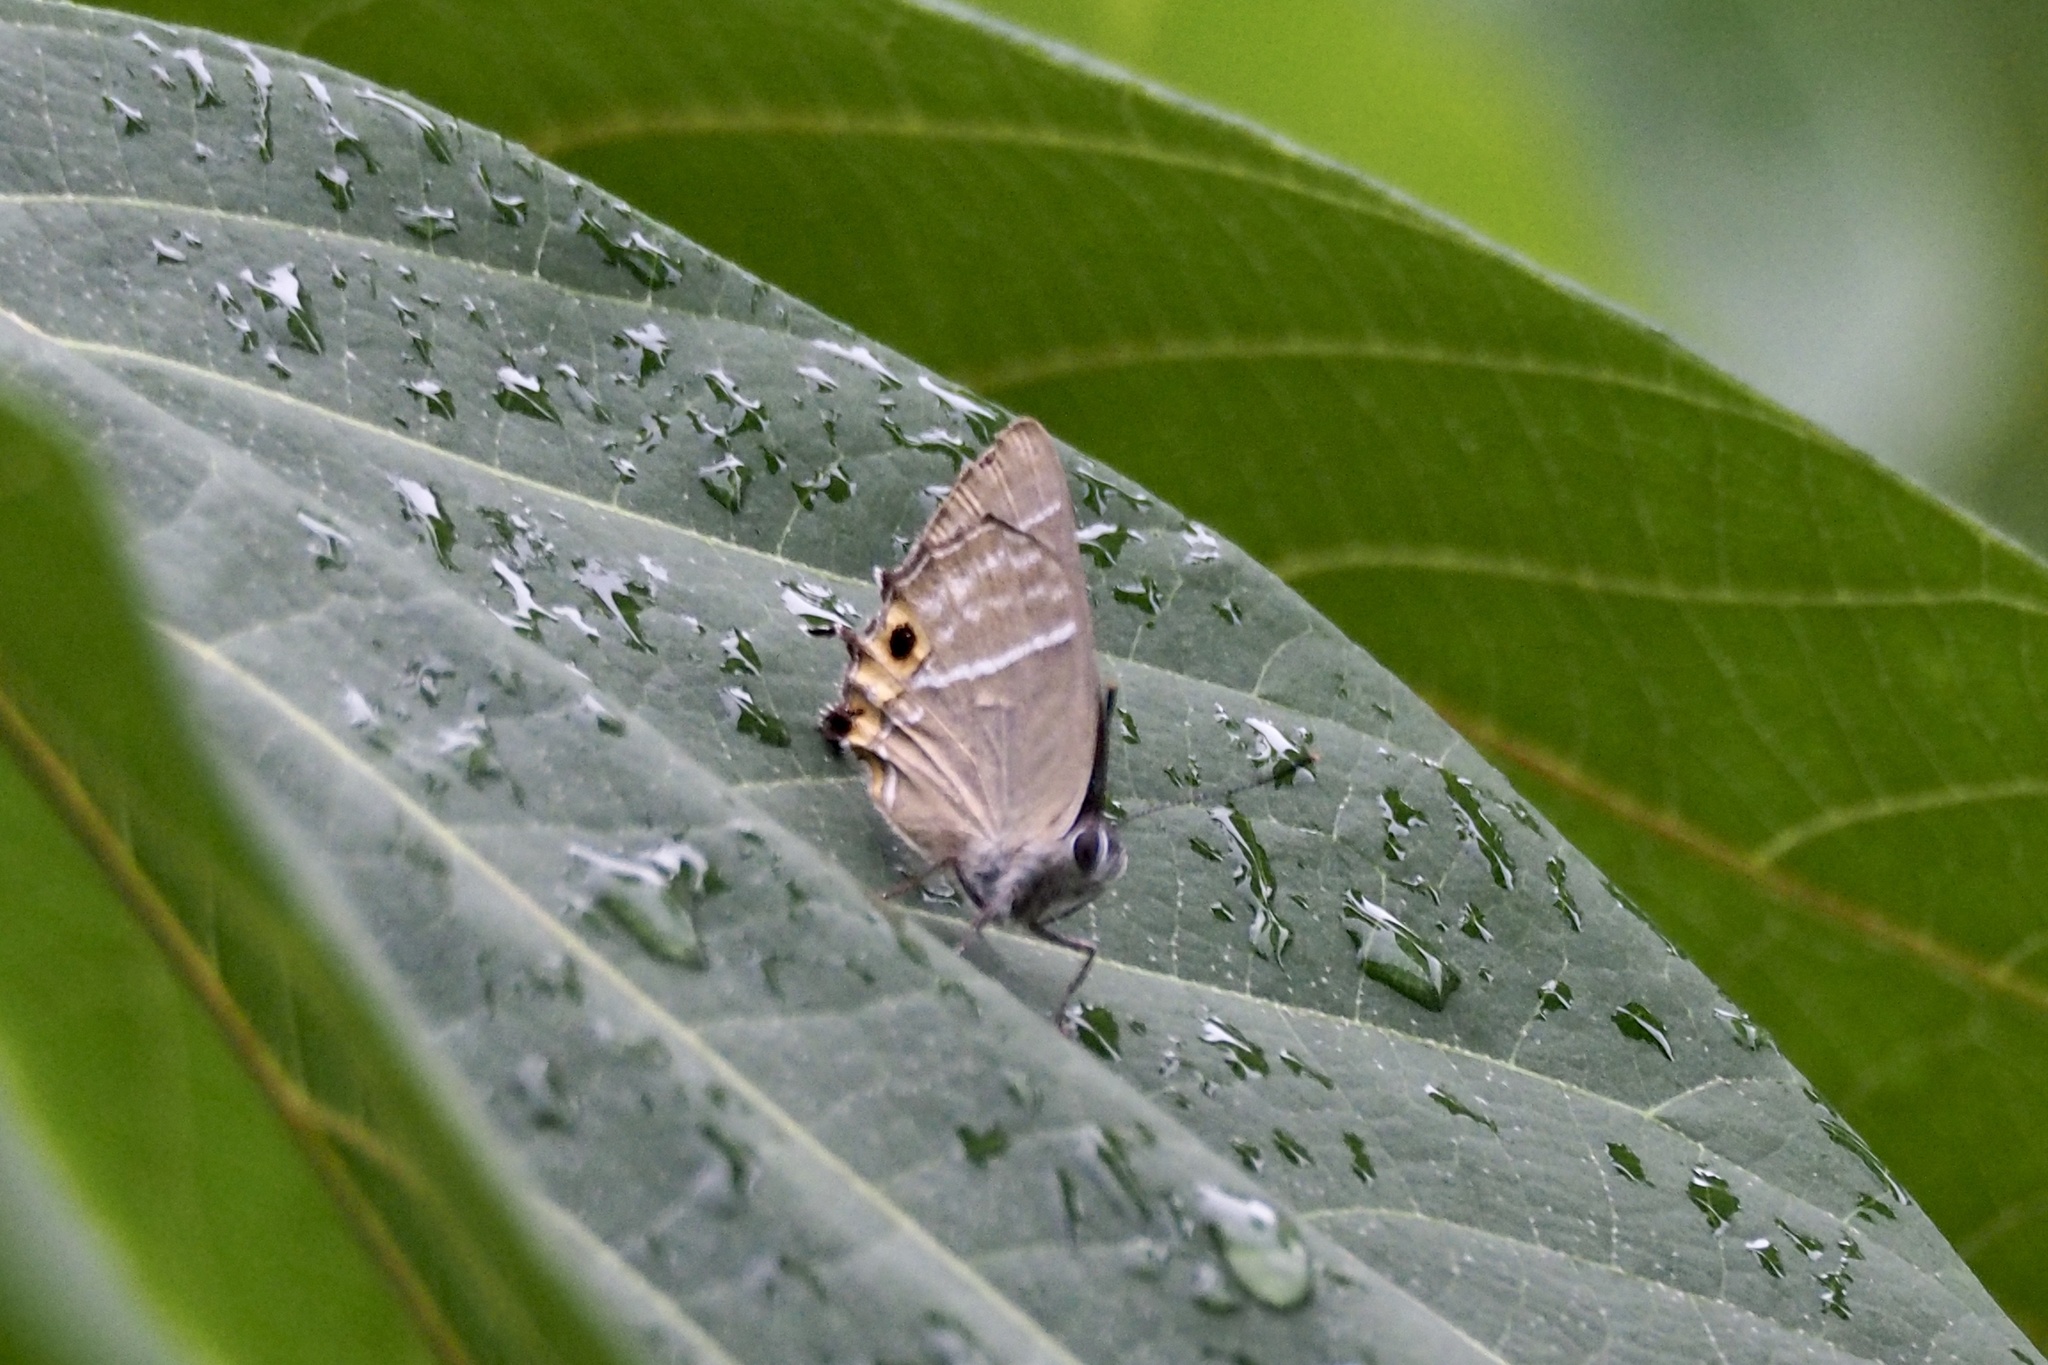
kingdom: Animalia
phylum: Arthropoda
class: Insecta
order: Lepidoptera
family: Lycaenidae
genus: Neozephyrus
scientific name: Neozephyrus japonicus
